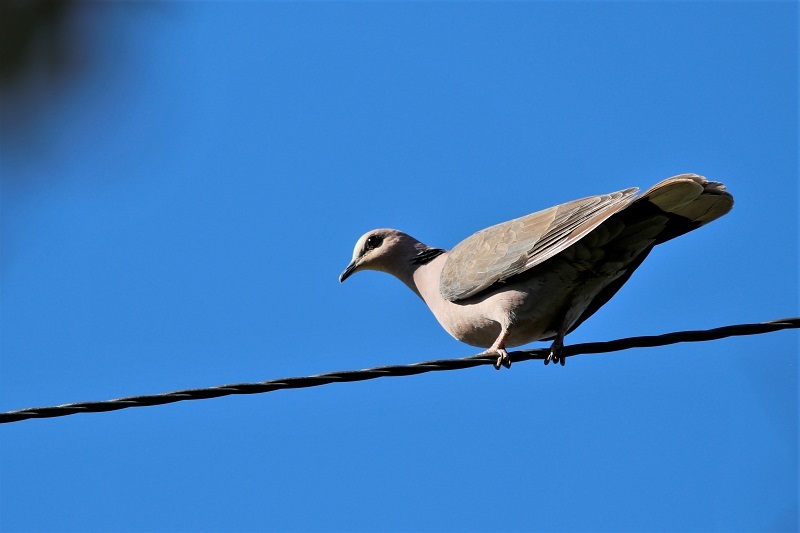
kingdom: Animalia
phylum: Chordata
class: Aves
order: Columbiformes
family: Columbidae
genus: Streptopelia
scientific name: Streptopelia semitorquata
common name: Red-eyed dove
